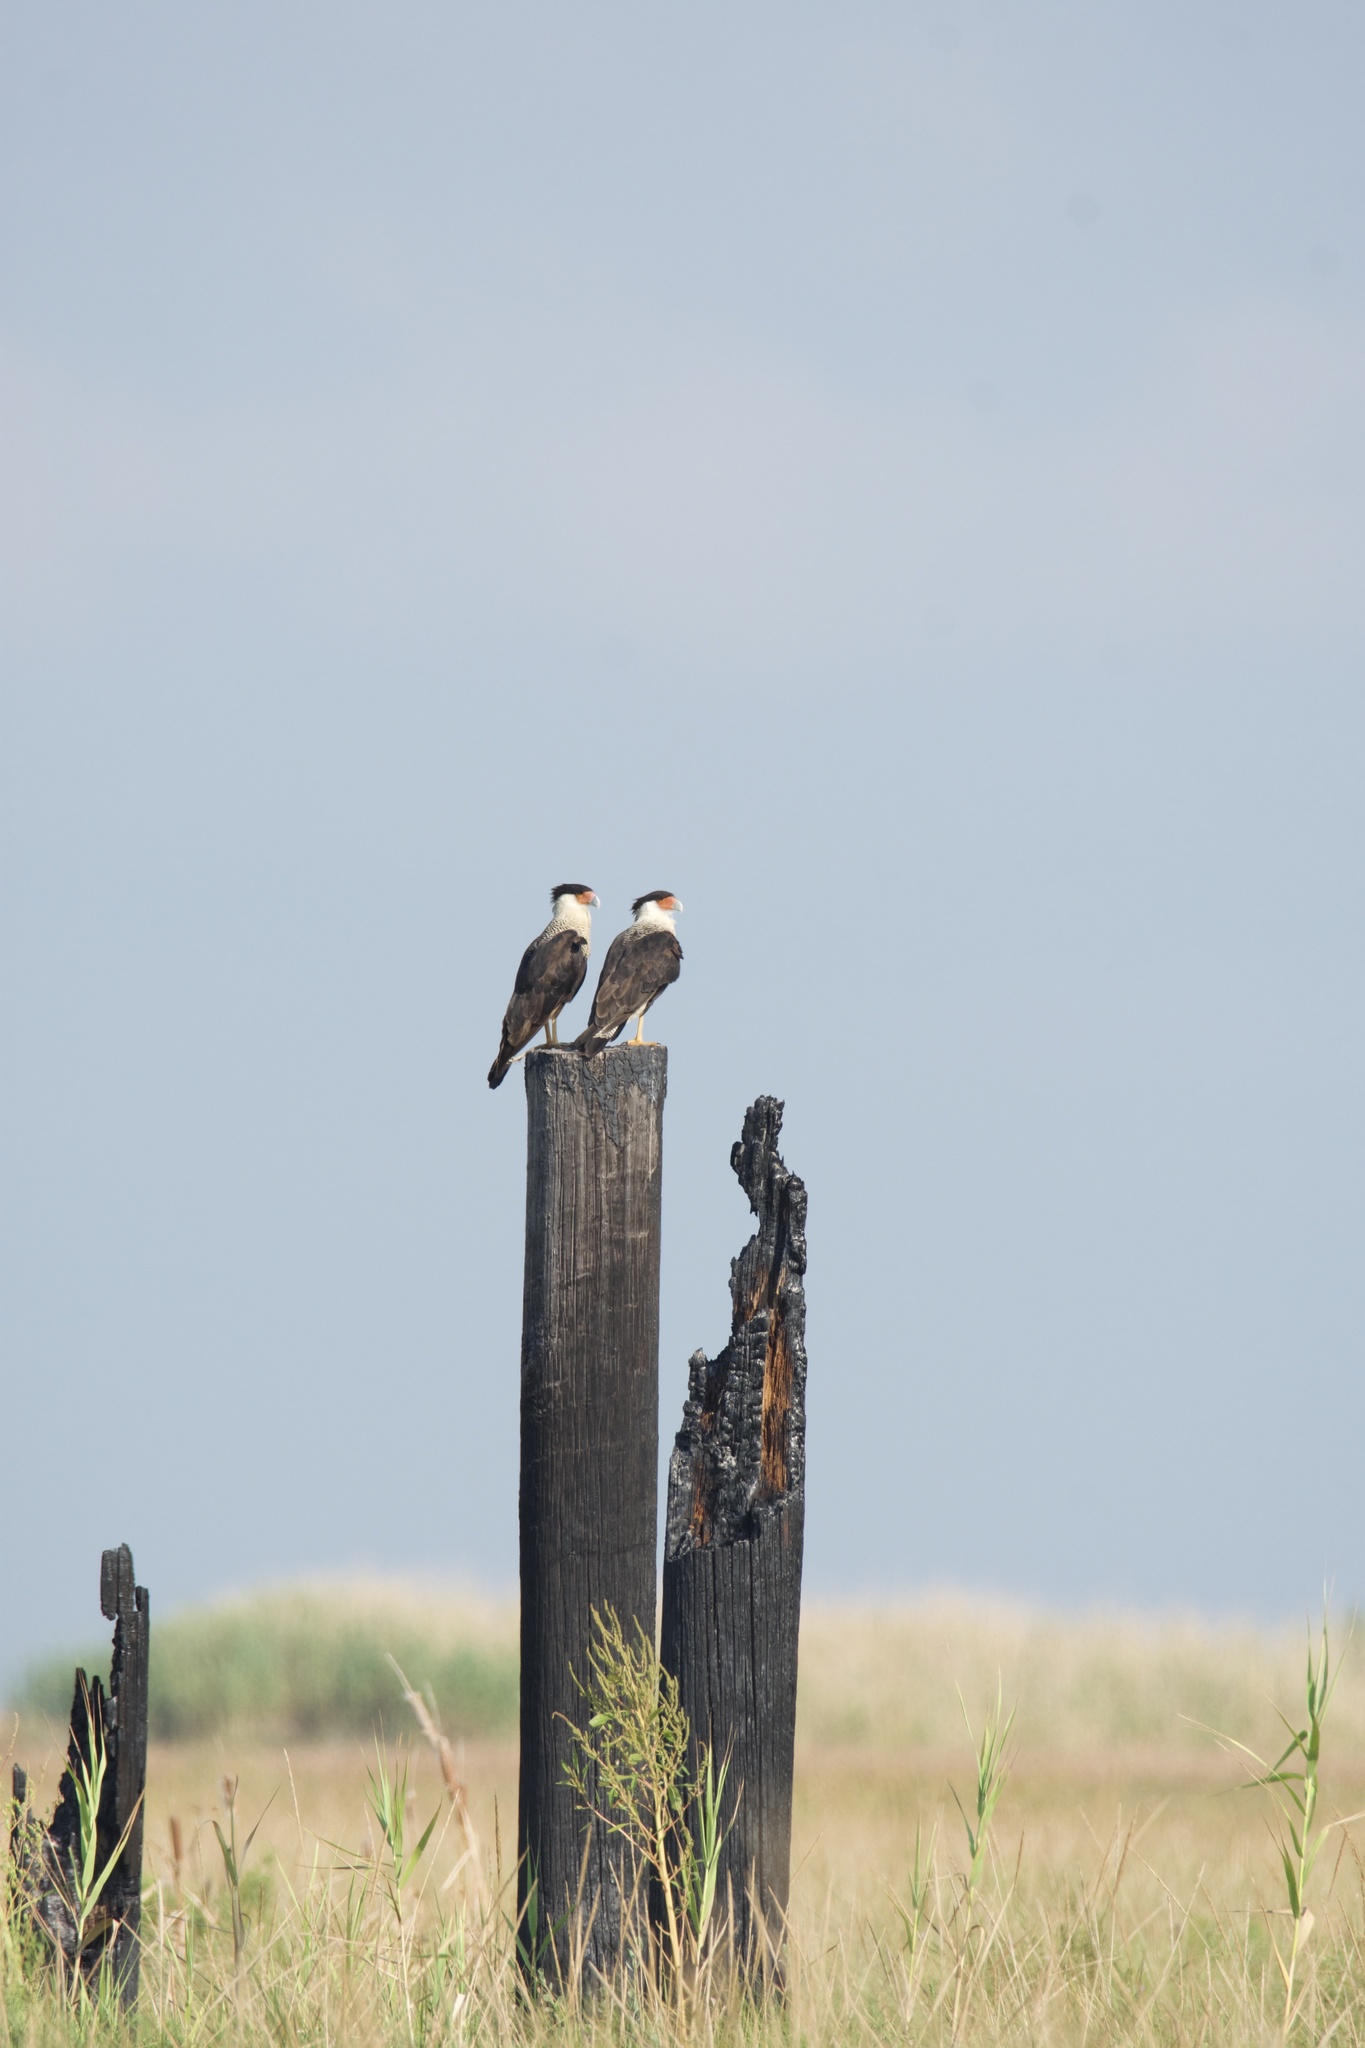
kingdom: Animalia
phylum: Chordata
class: Aves
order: Falconiformes
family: Falconidae
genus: Caracara
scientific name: Caracara plancus
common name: Southern caracara
